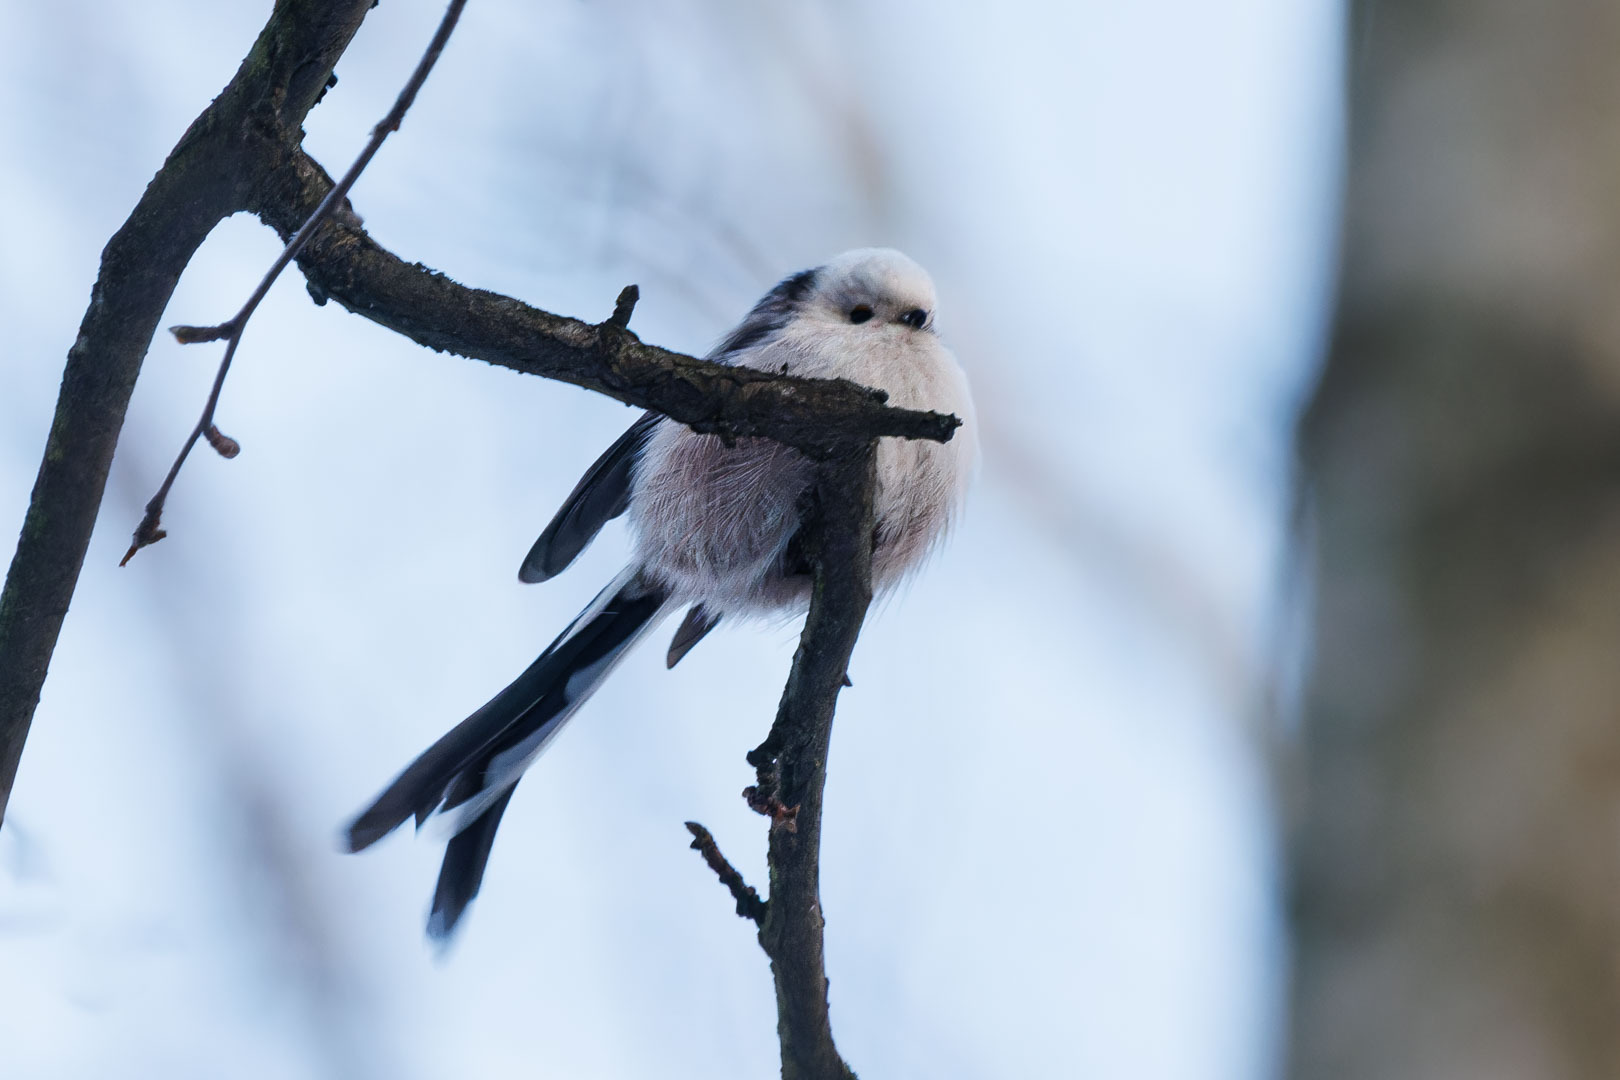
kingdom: Animalia
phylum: Chordata
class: Aves
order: Passeriformes
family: Aegithalidae
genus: Aegithalos
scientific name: Aegithalos caudatus
